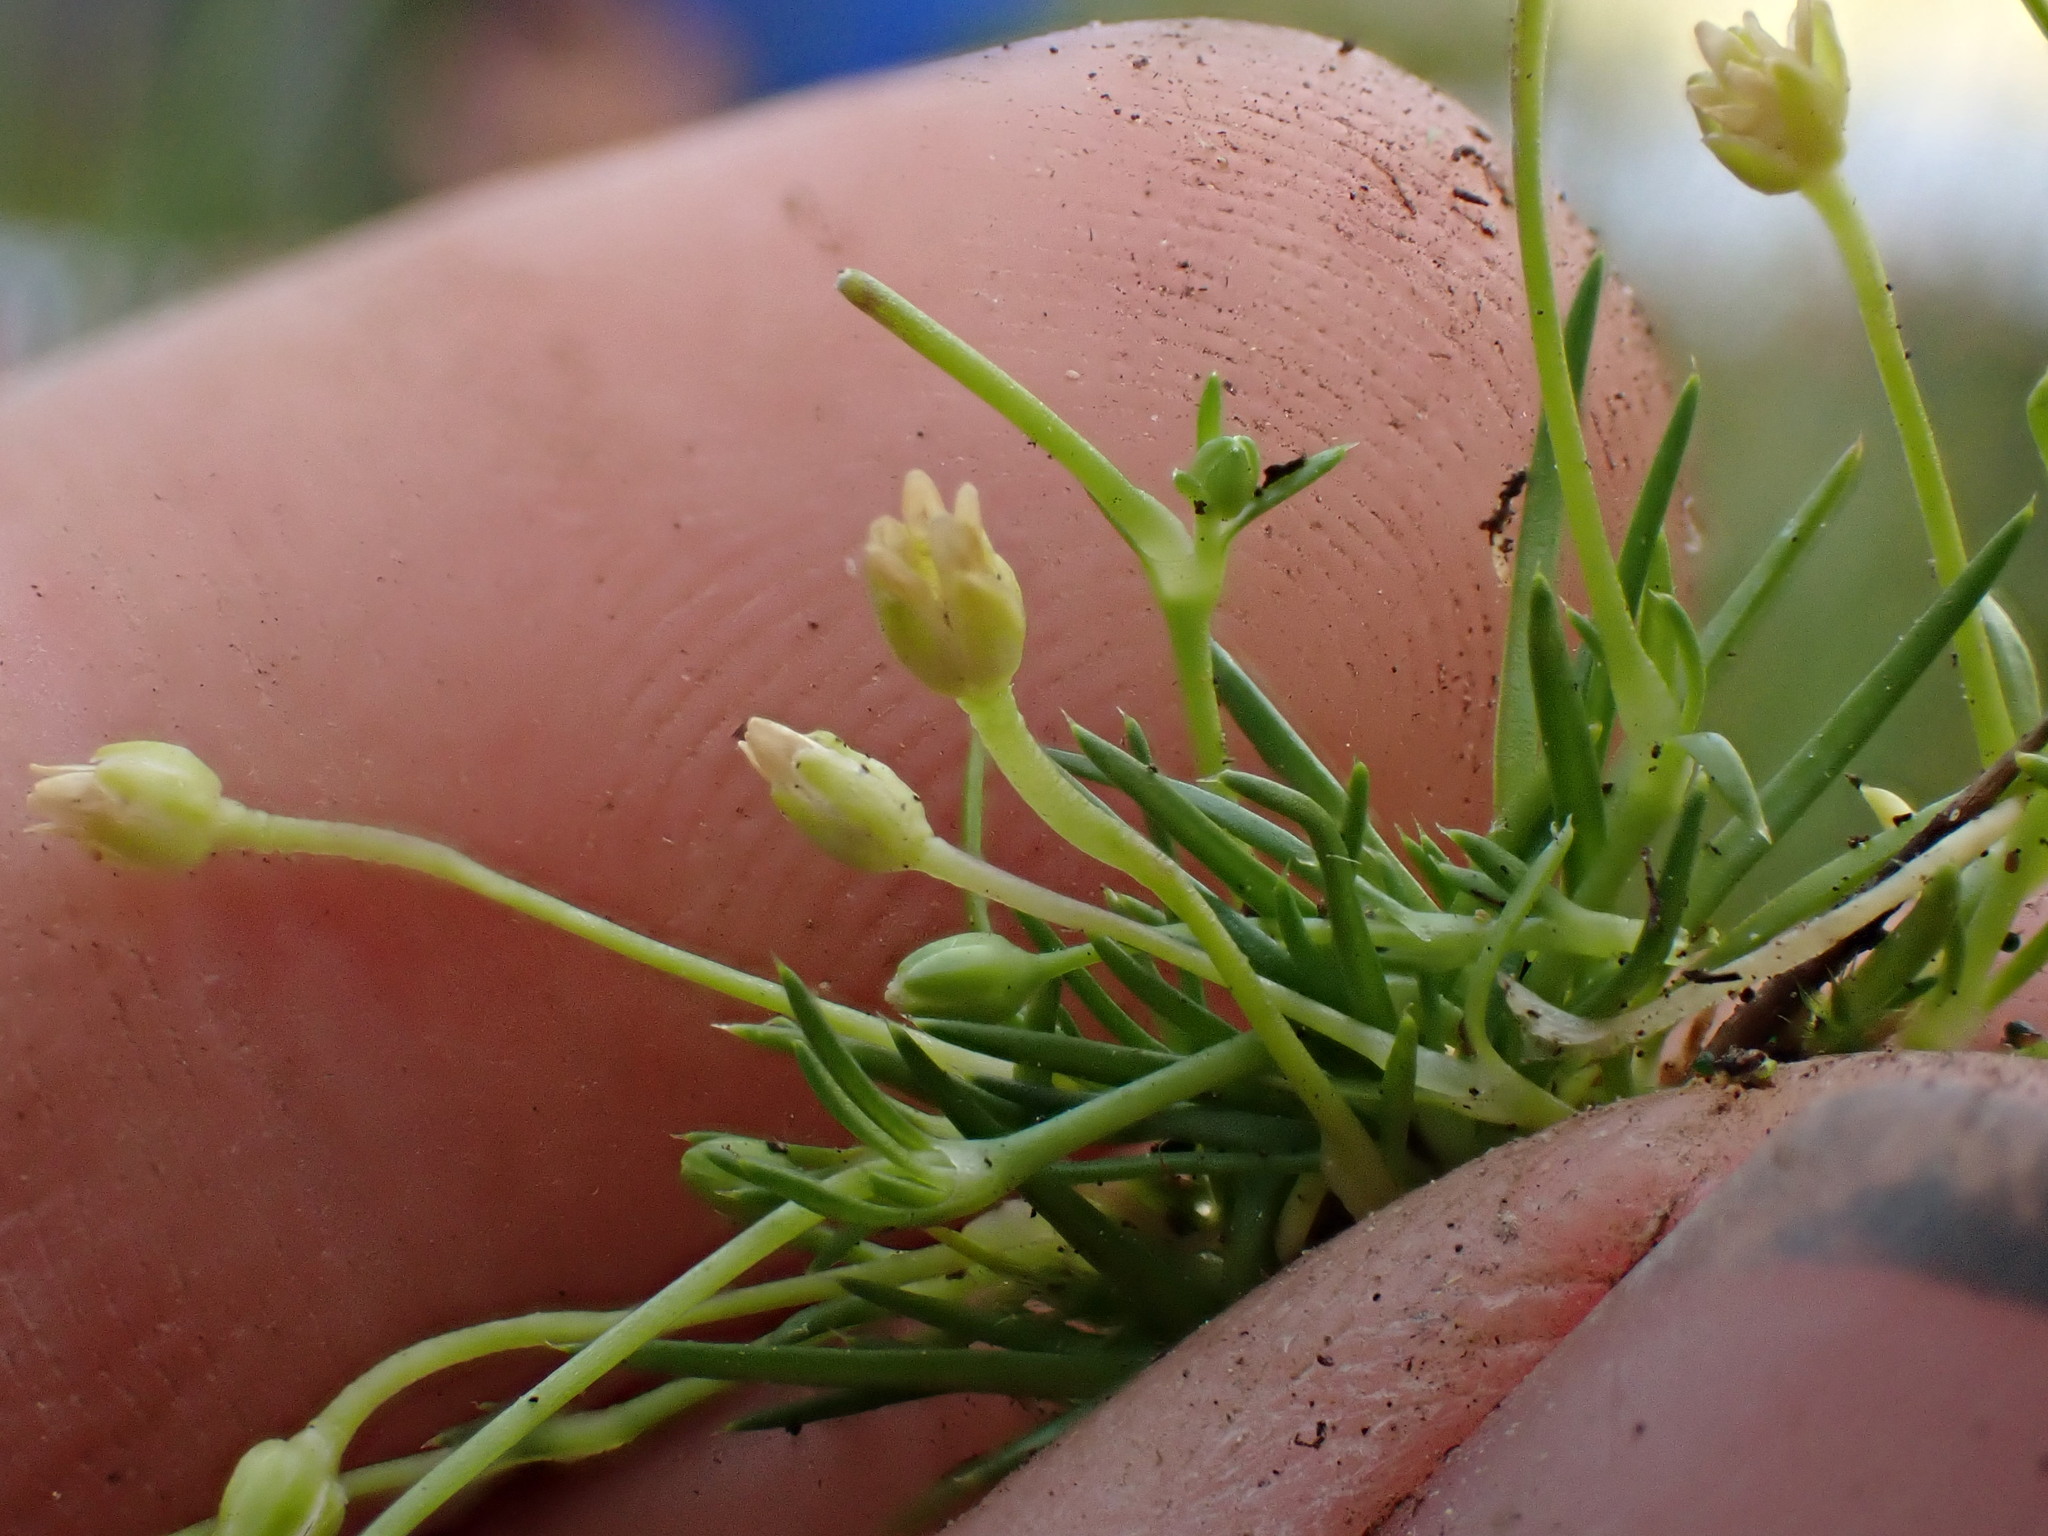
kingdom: Plantae
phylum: Tracheophyta
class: Magnoliopsida
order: Caryophyllales
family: Caryophyllaceae
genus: Sagina
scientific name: Sagina saginoides
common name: Alpine pearlwort
